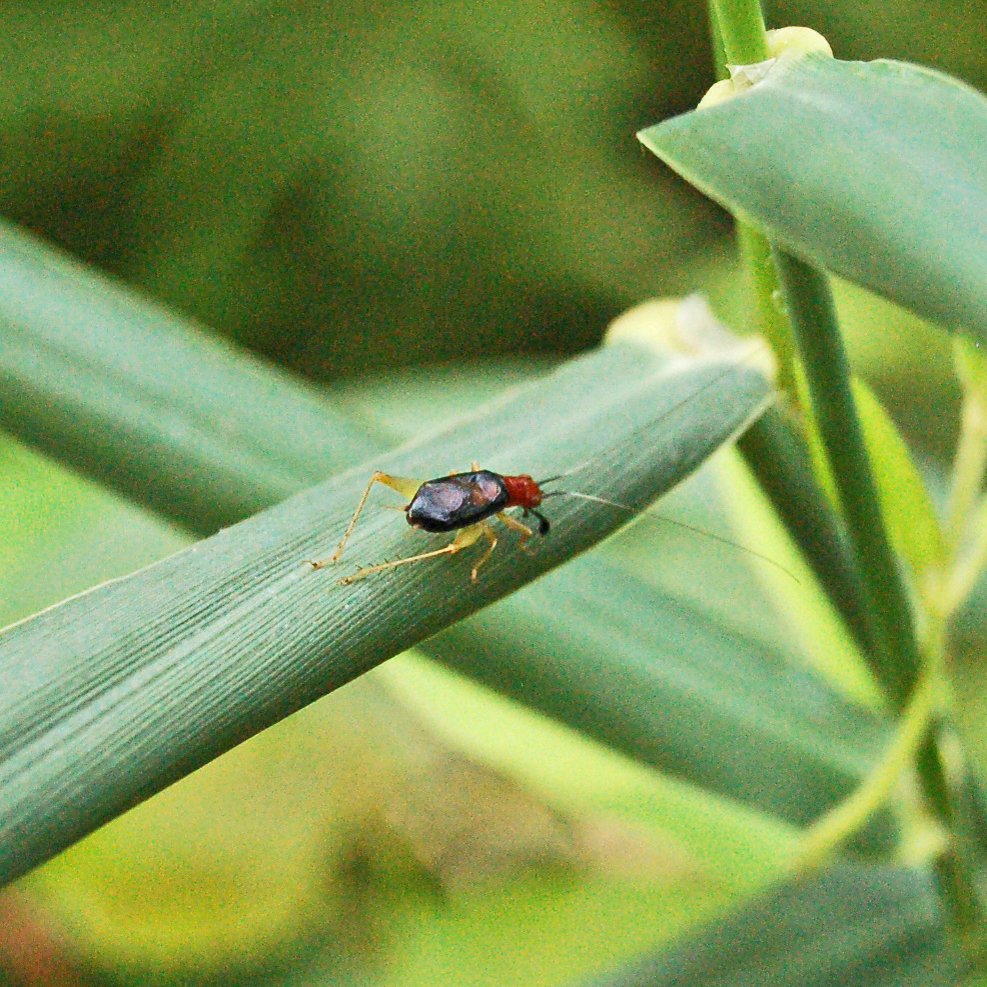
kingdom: Animalia
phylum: Arthropoda
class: Insecta
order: Orthoptera
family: Trigonidiidae
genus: Phyllopalpus
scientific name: Phyllopalpus pulchellus
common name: Handsome trig
